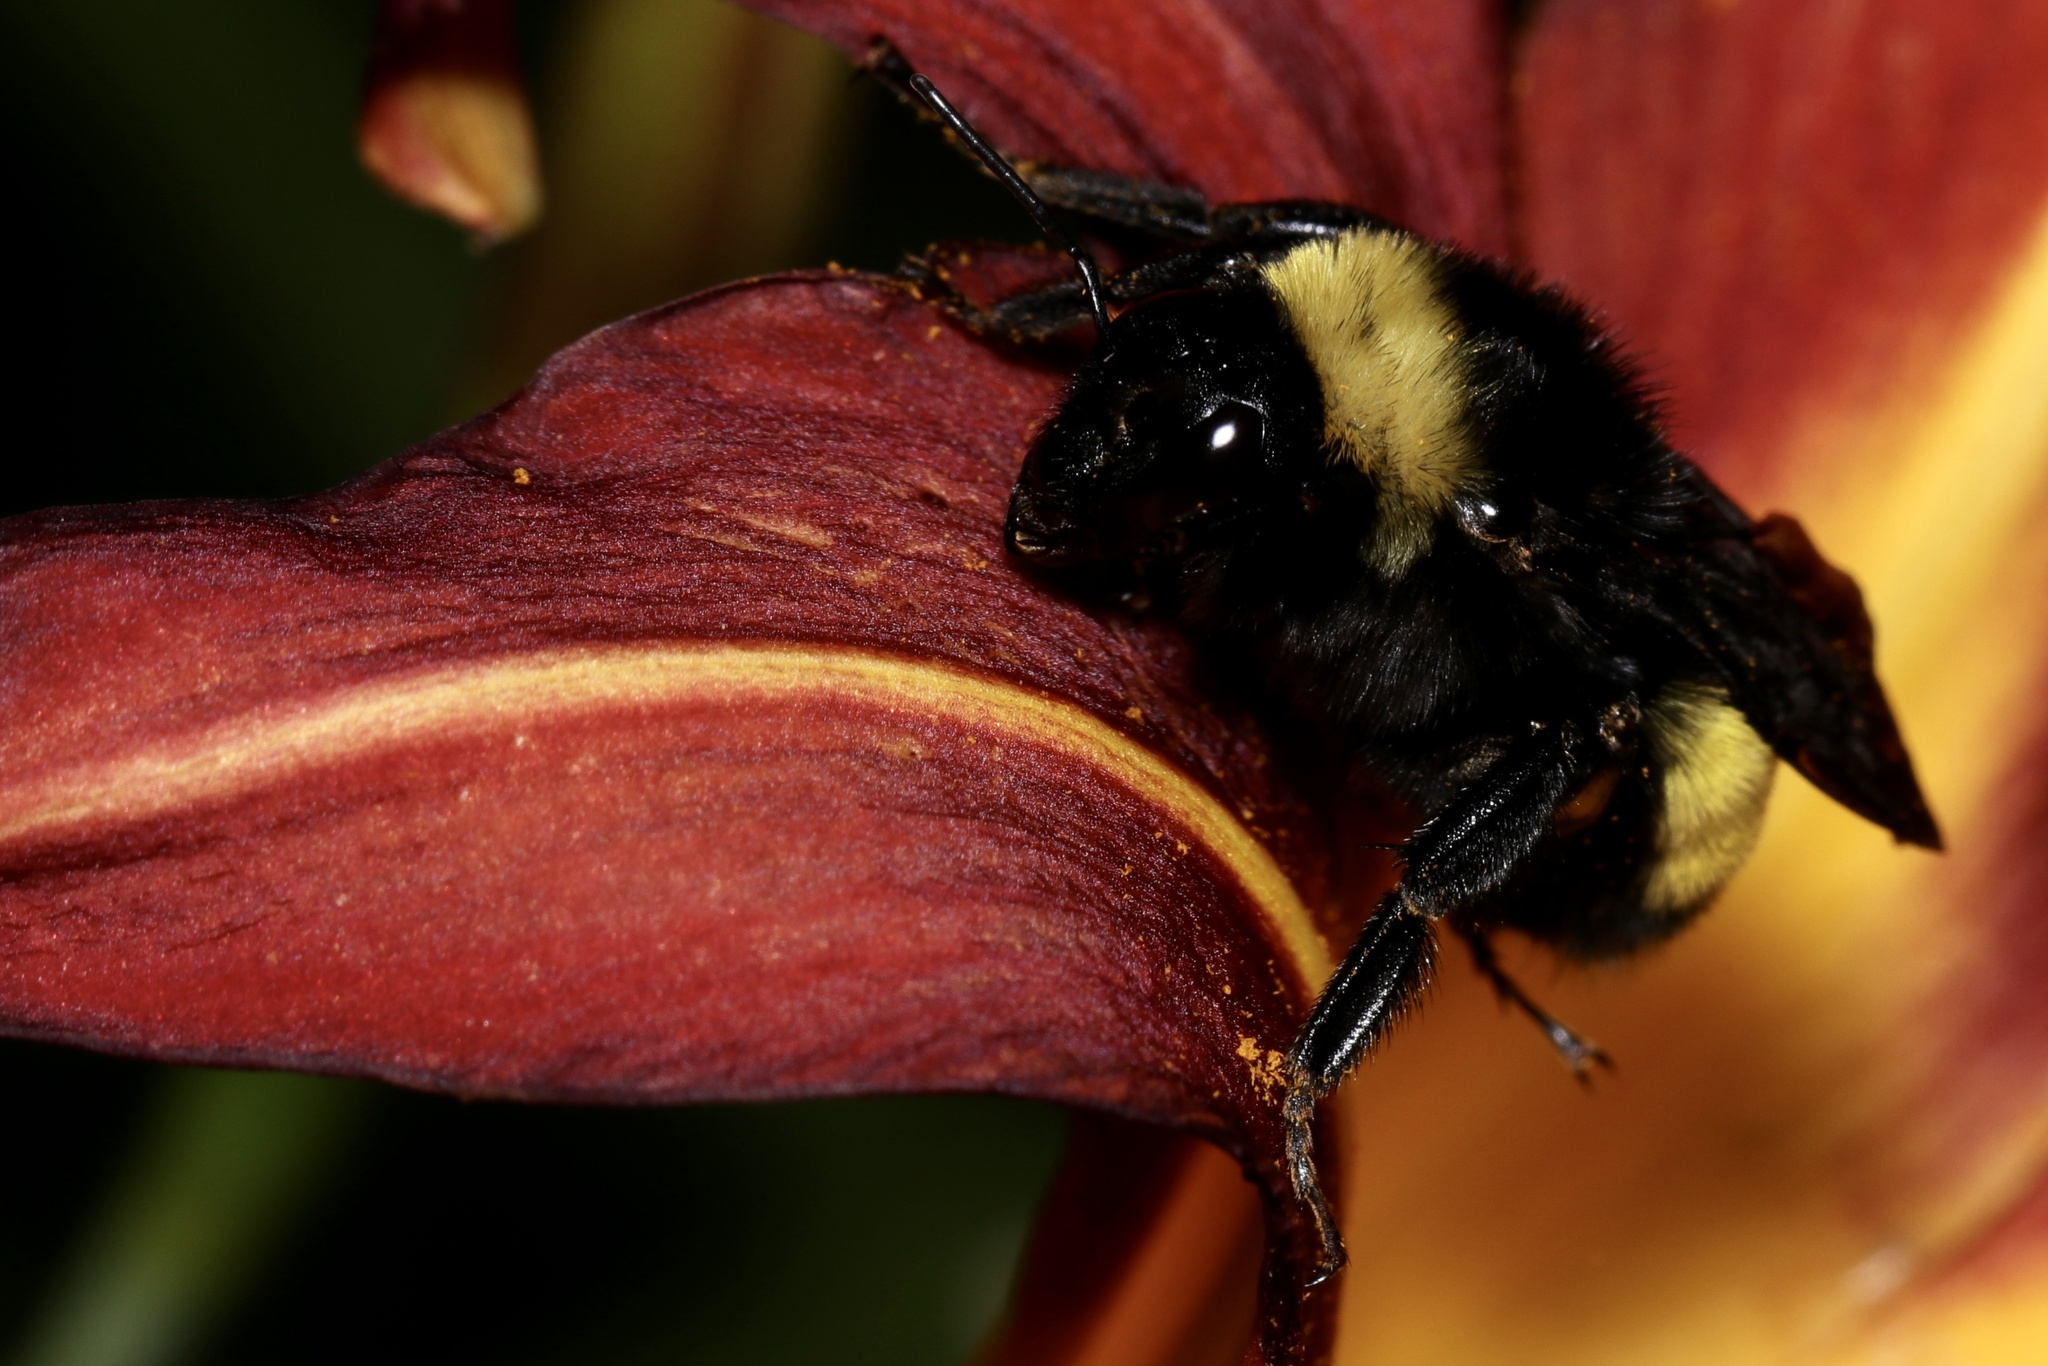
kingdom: Animalia
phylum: Arthropoda
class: Insecta
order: Hymenoptera
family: Apidae
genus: Bombus
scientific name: Bombus pensylvanicus
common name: Bumble bee
